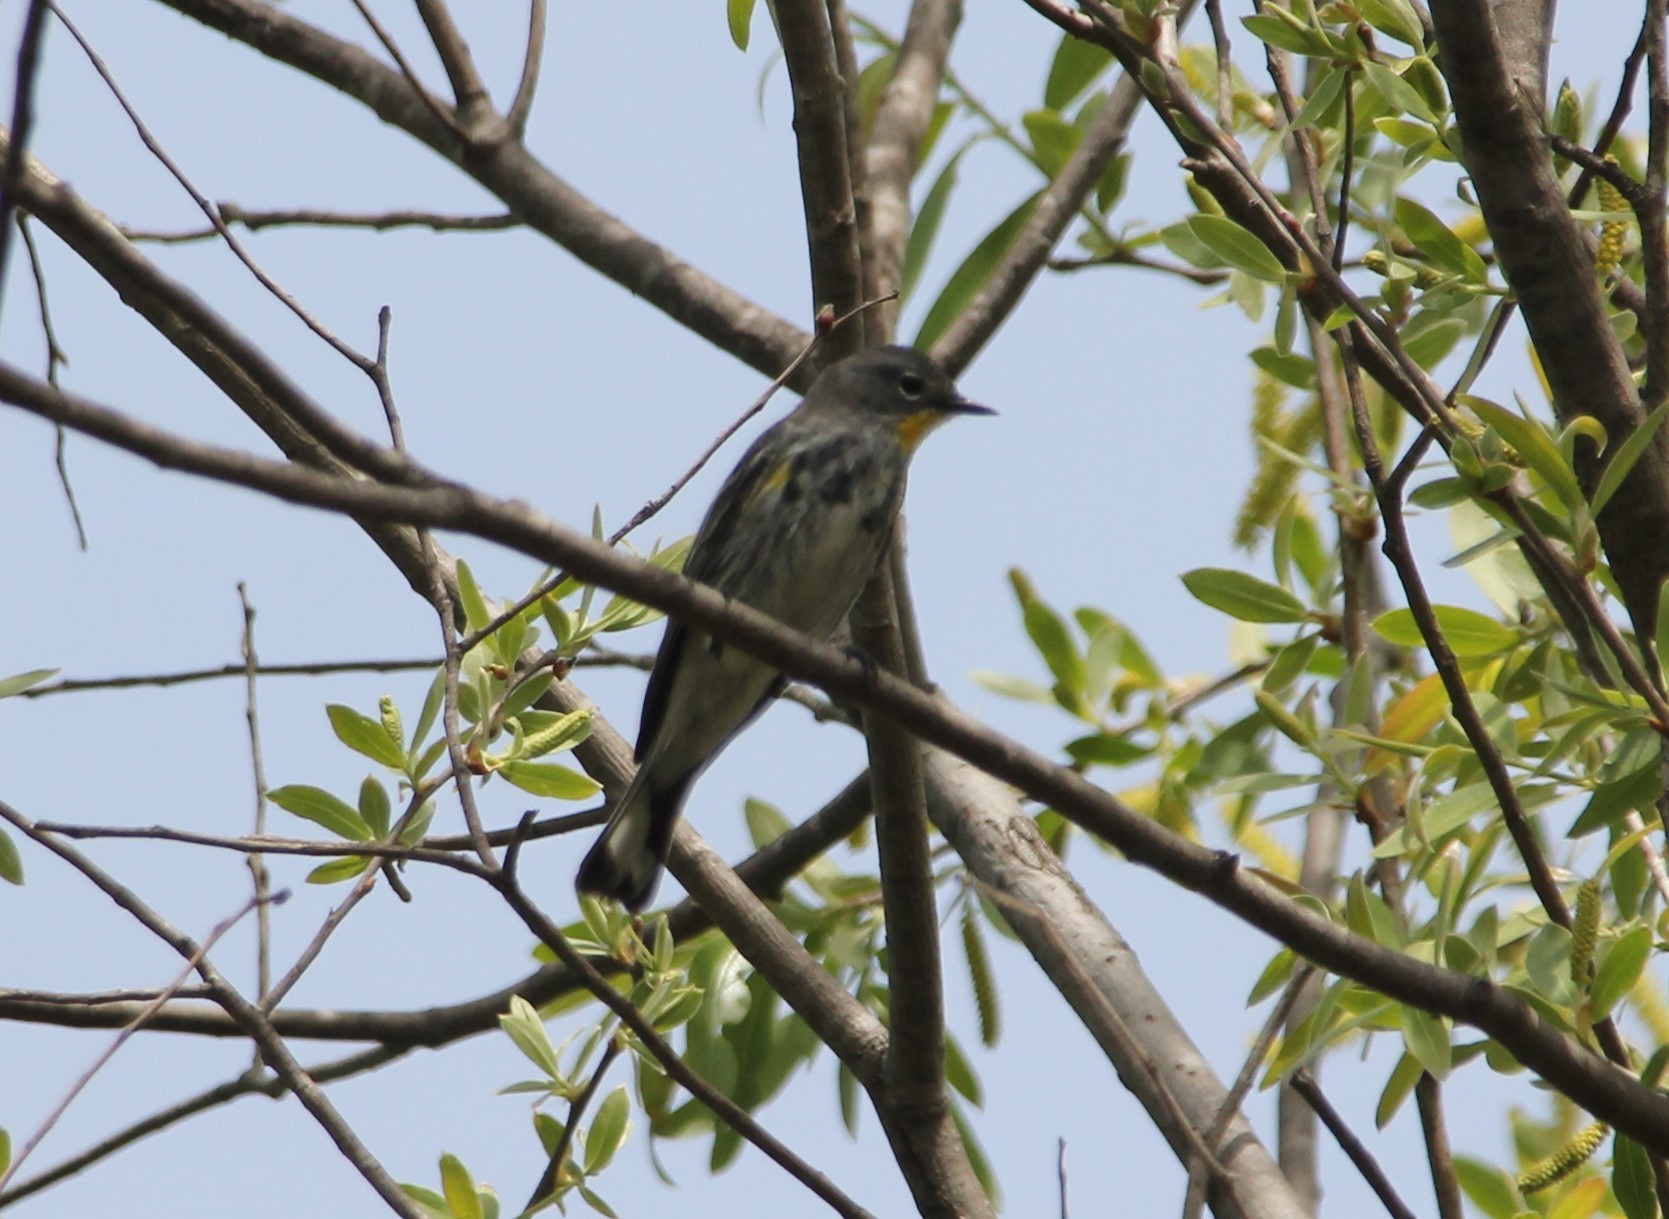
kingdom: Animalia
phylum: Chordata
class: Aves
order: Passeriformes
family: Parulidae
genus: Setophaga
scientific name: Setophaga auduboni
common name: Audubon's warbler
